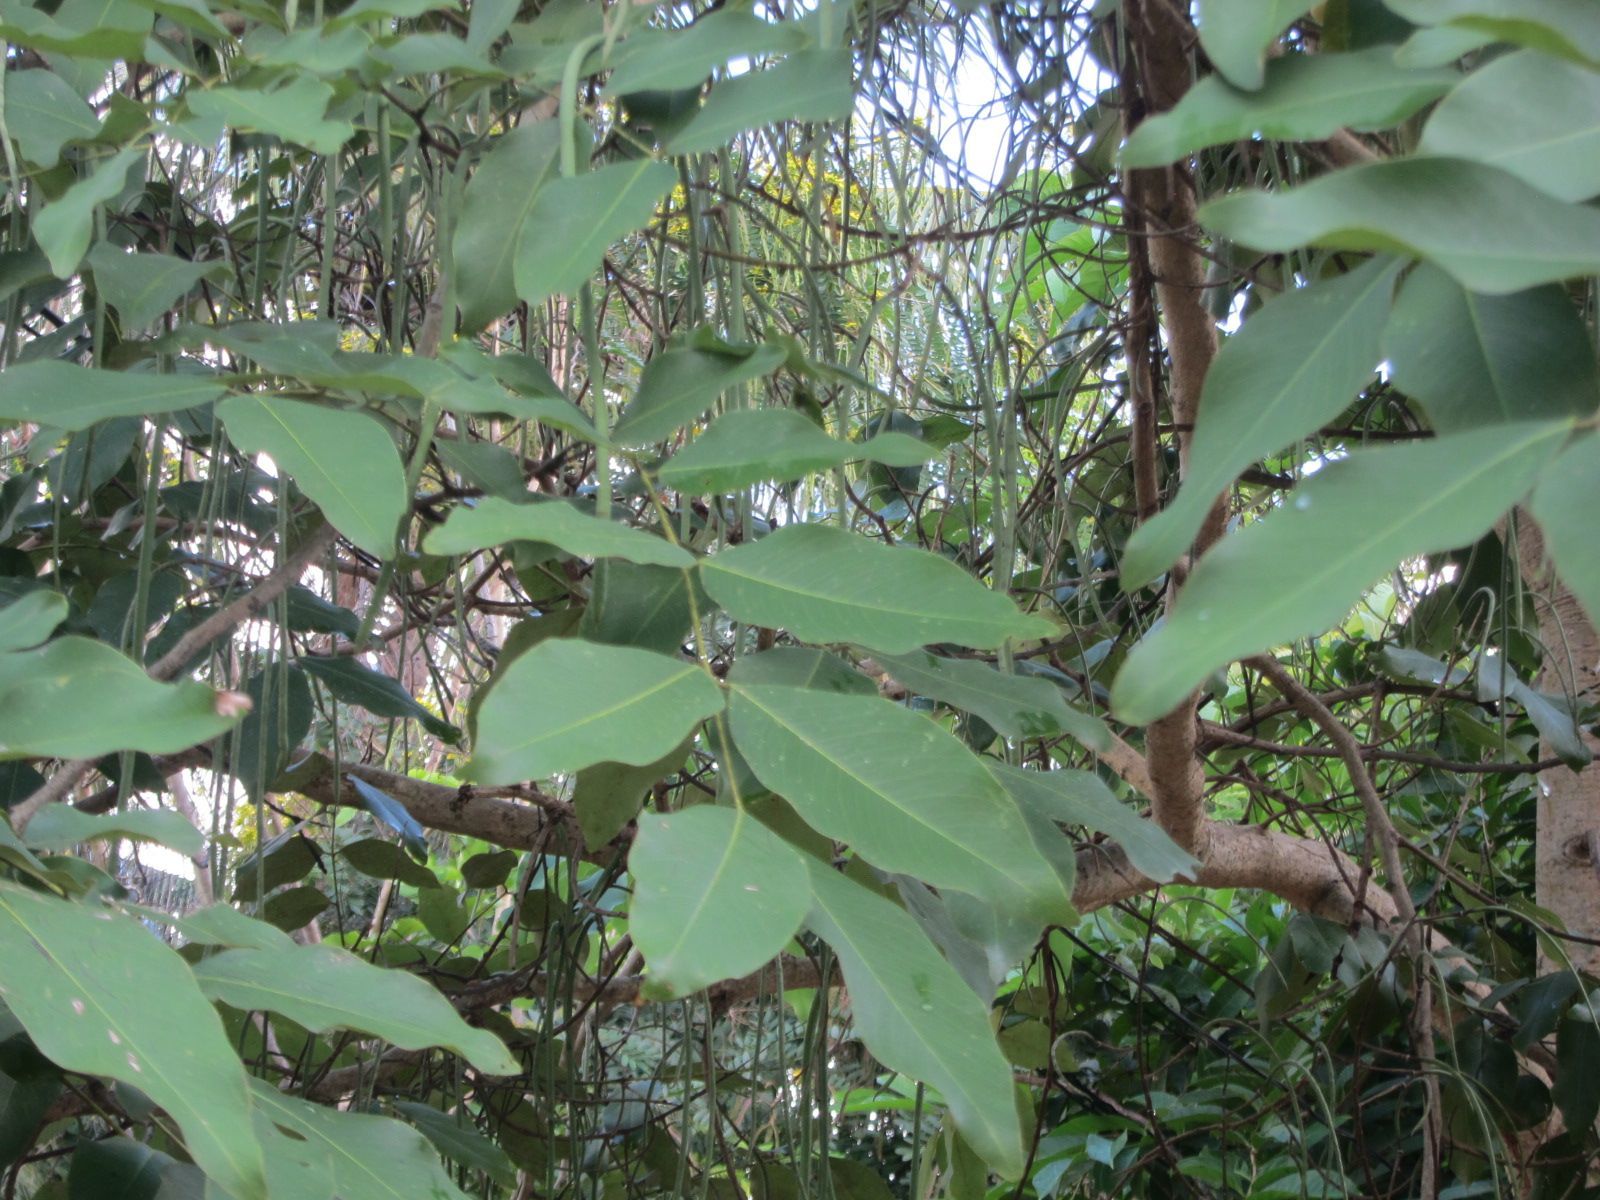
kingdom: Plantae
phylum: Tracheophyta
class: Magnoliopsida
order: Fabales
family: Fabaceae
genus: Cassia
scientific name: Cassia fistula
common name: Golden shower
